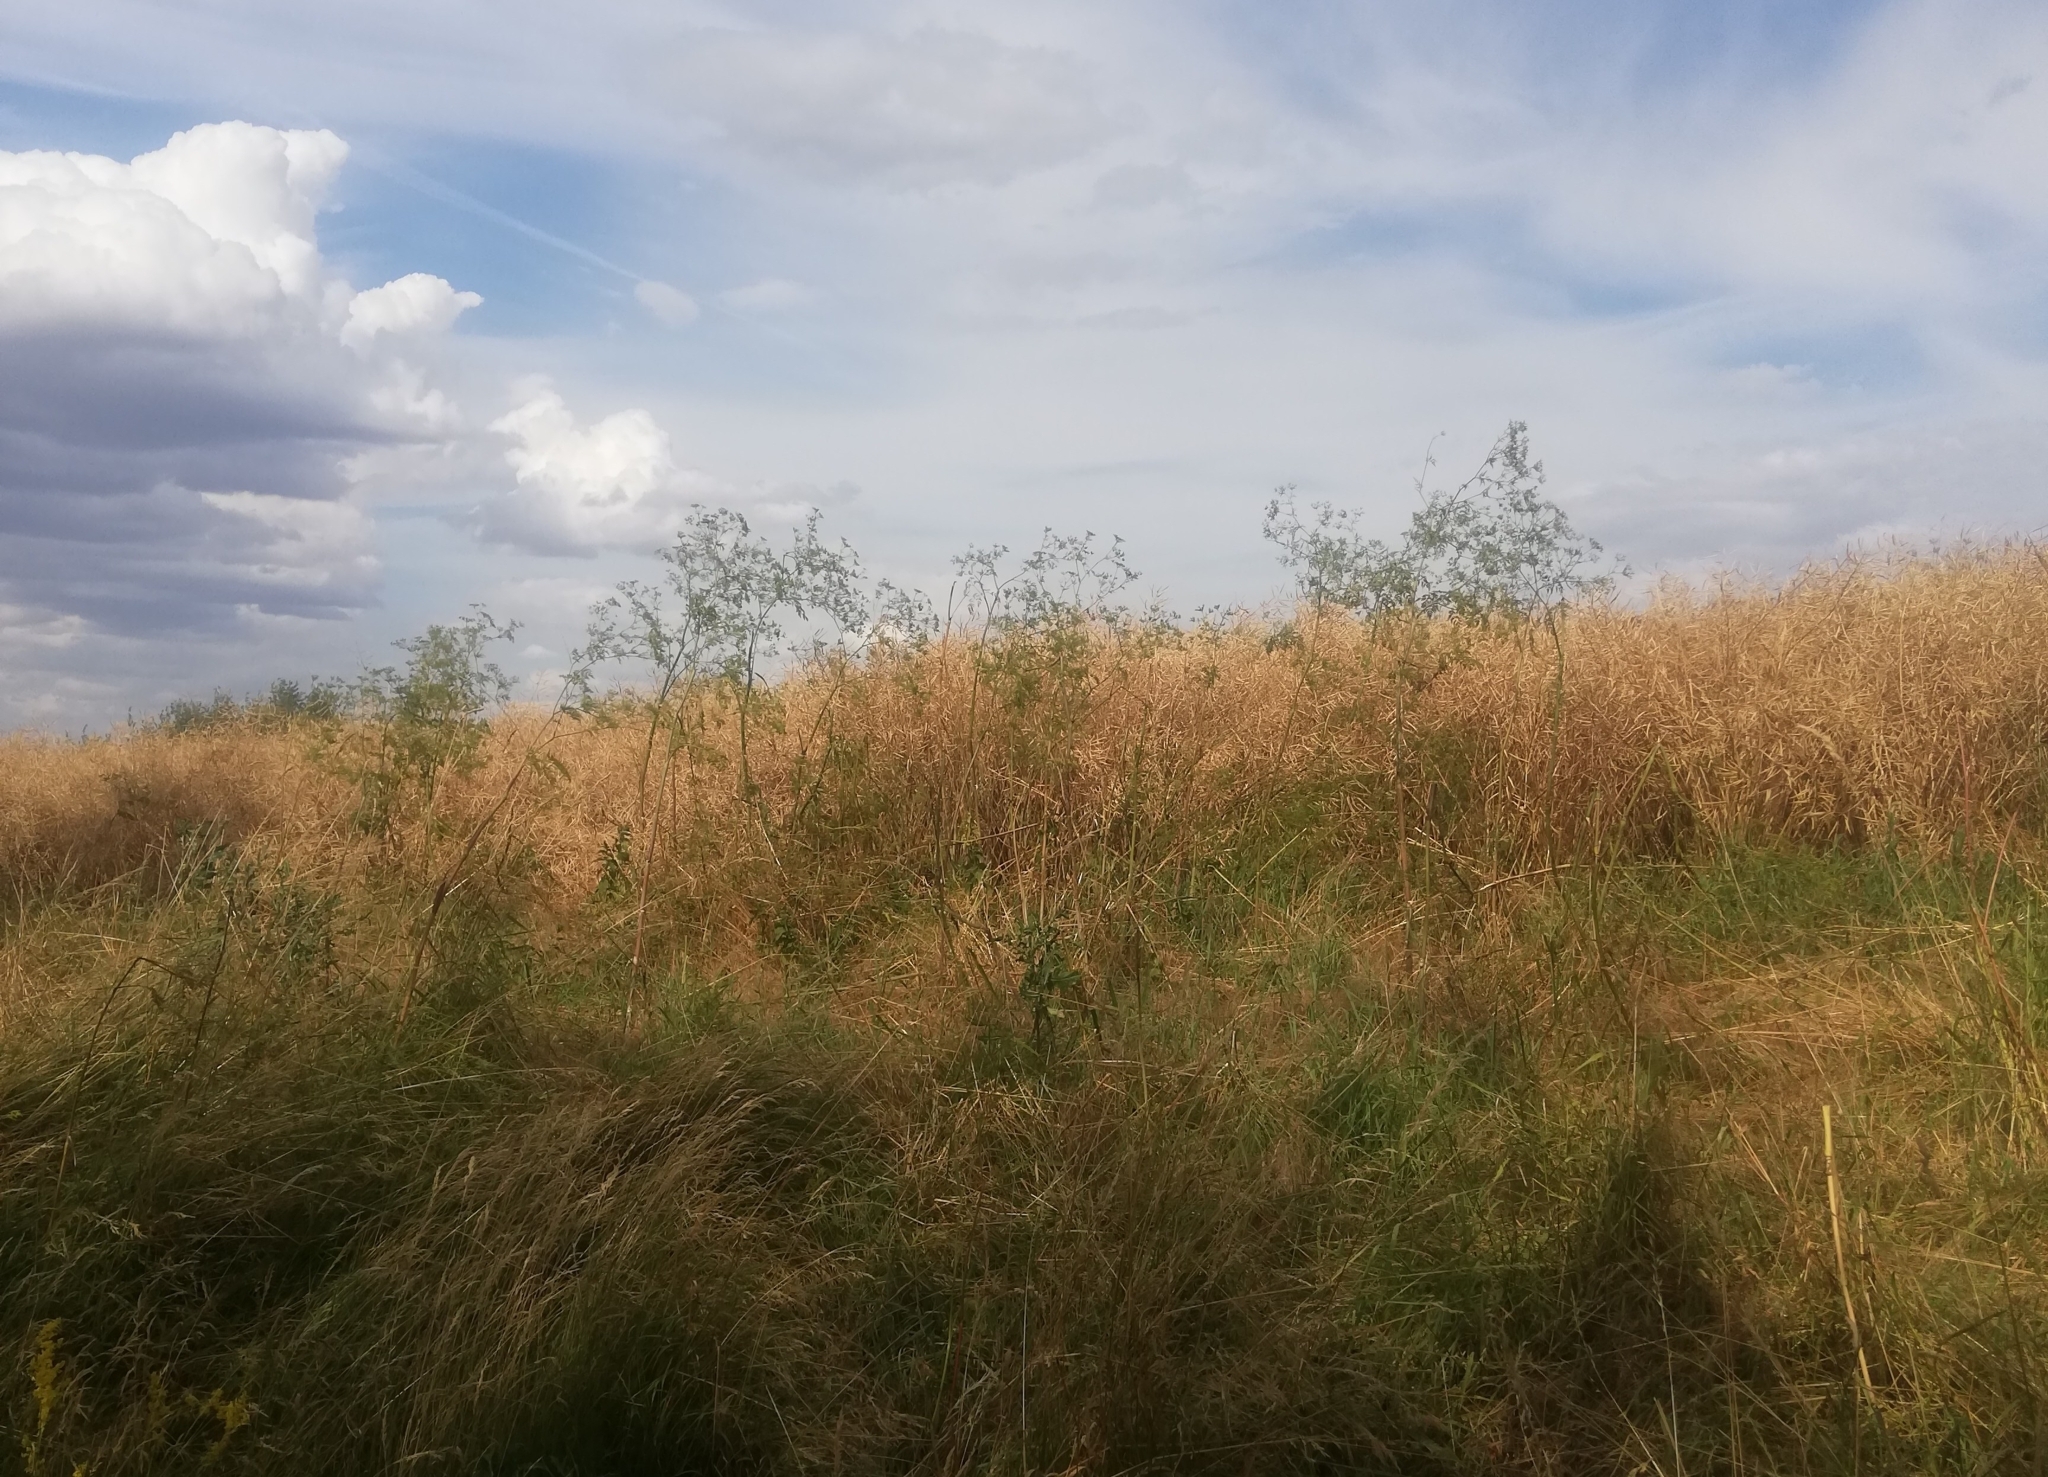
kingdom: Plantae
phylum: Tracheophyta
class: Magnoliopsida
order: Apiales
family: Apiaceae
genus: Conium
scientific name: Conium maculatum
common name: Hemlock
